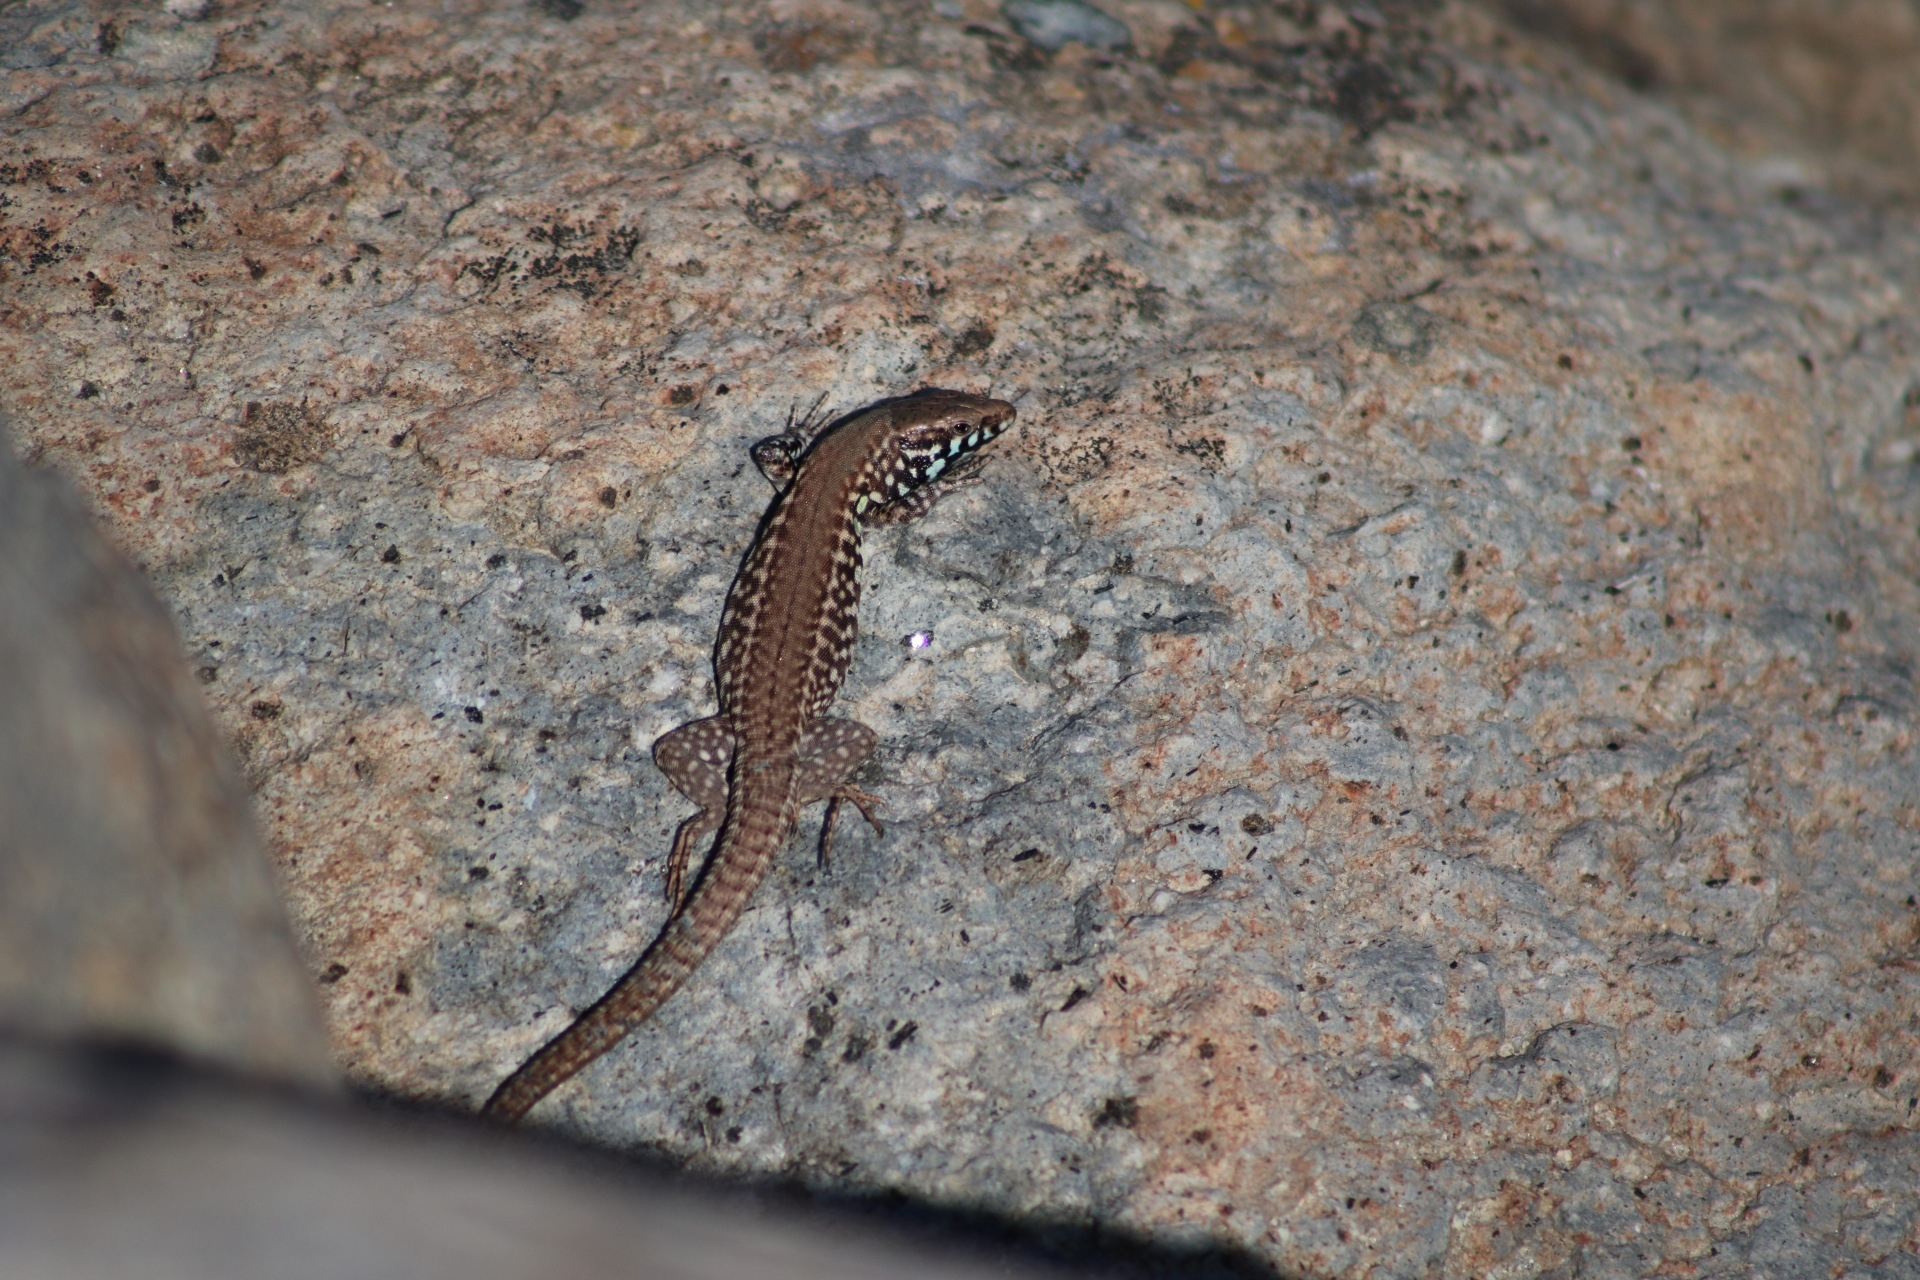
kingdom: Animalia
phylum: Chordata
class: Squamata
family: Lacertidae
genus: Podarcis
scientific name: Podarcis milensis
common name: Milos wall lizard
